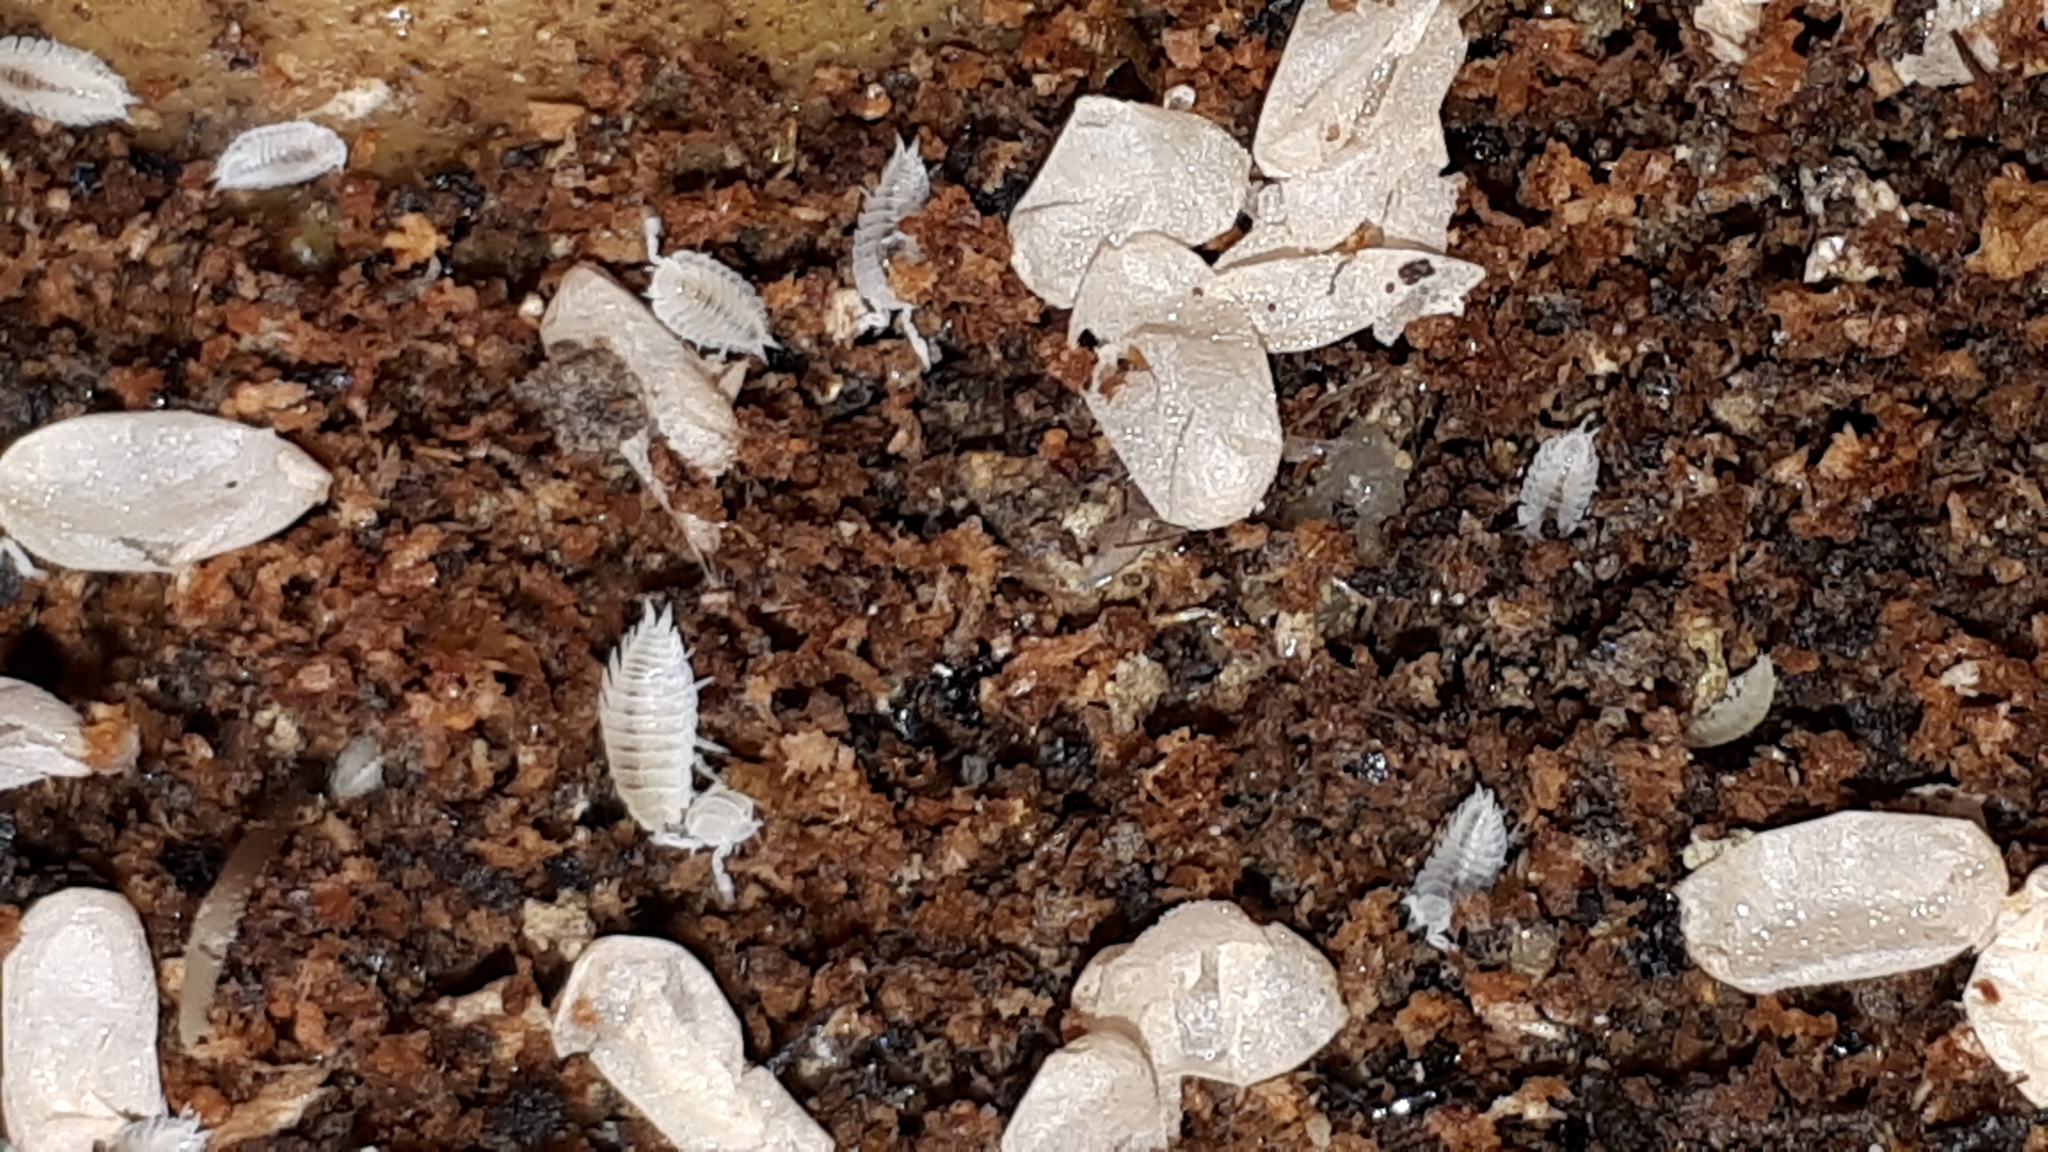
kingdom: Animalia
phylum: Arthropoda
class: Malacostraca
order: Isopoda
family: Platyarthridae
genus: Platyarthrus
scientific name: Platyarthrus hoffmannseggii
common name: Ant woodlouse
